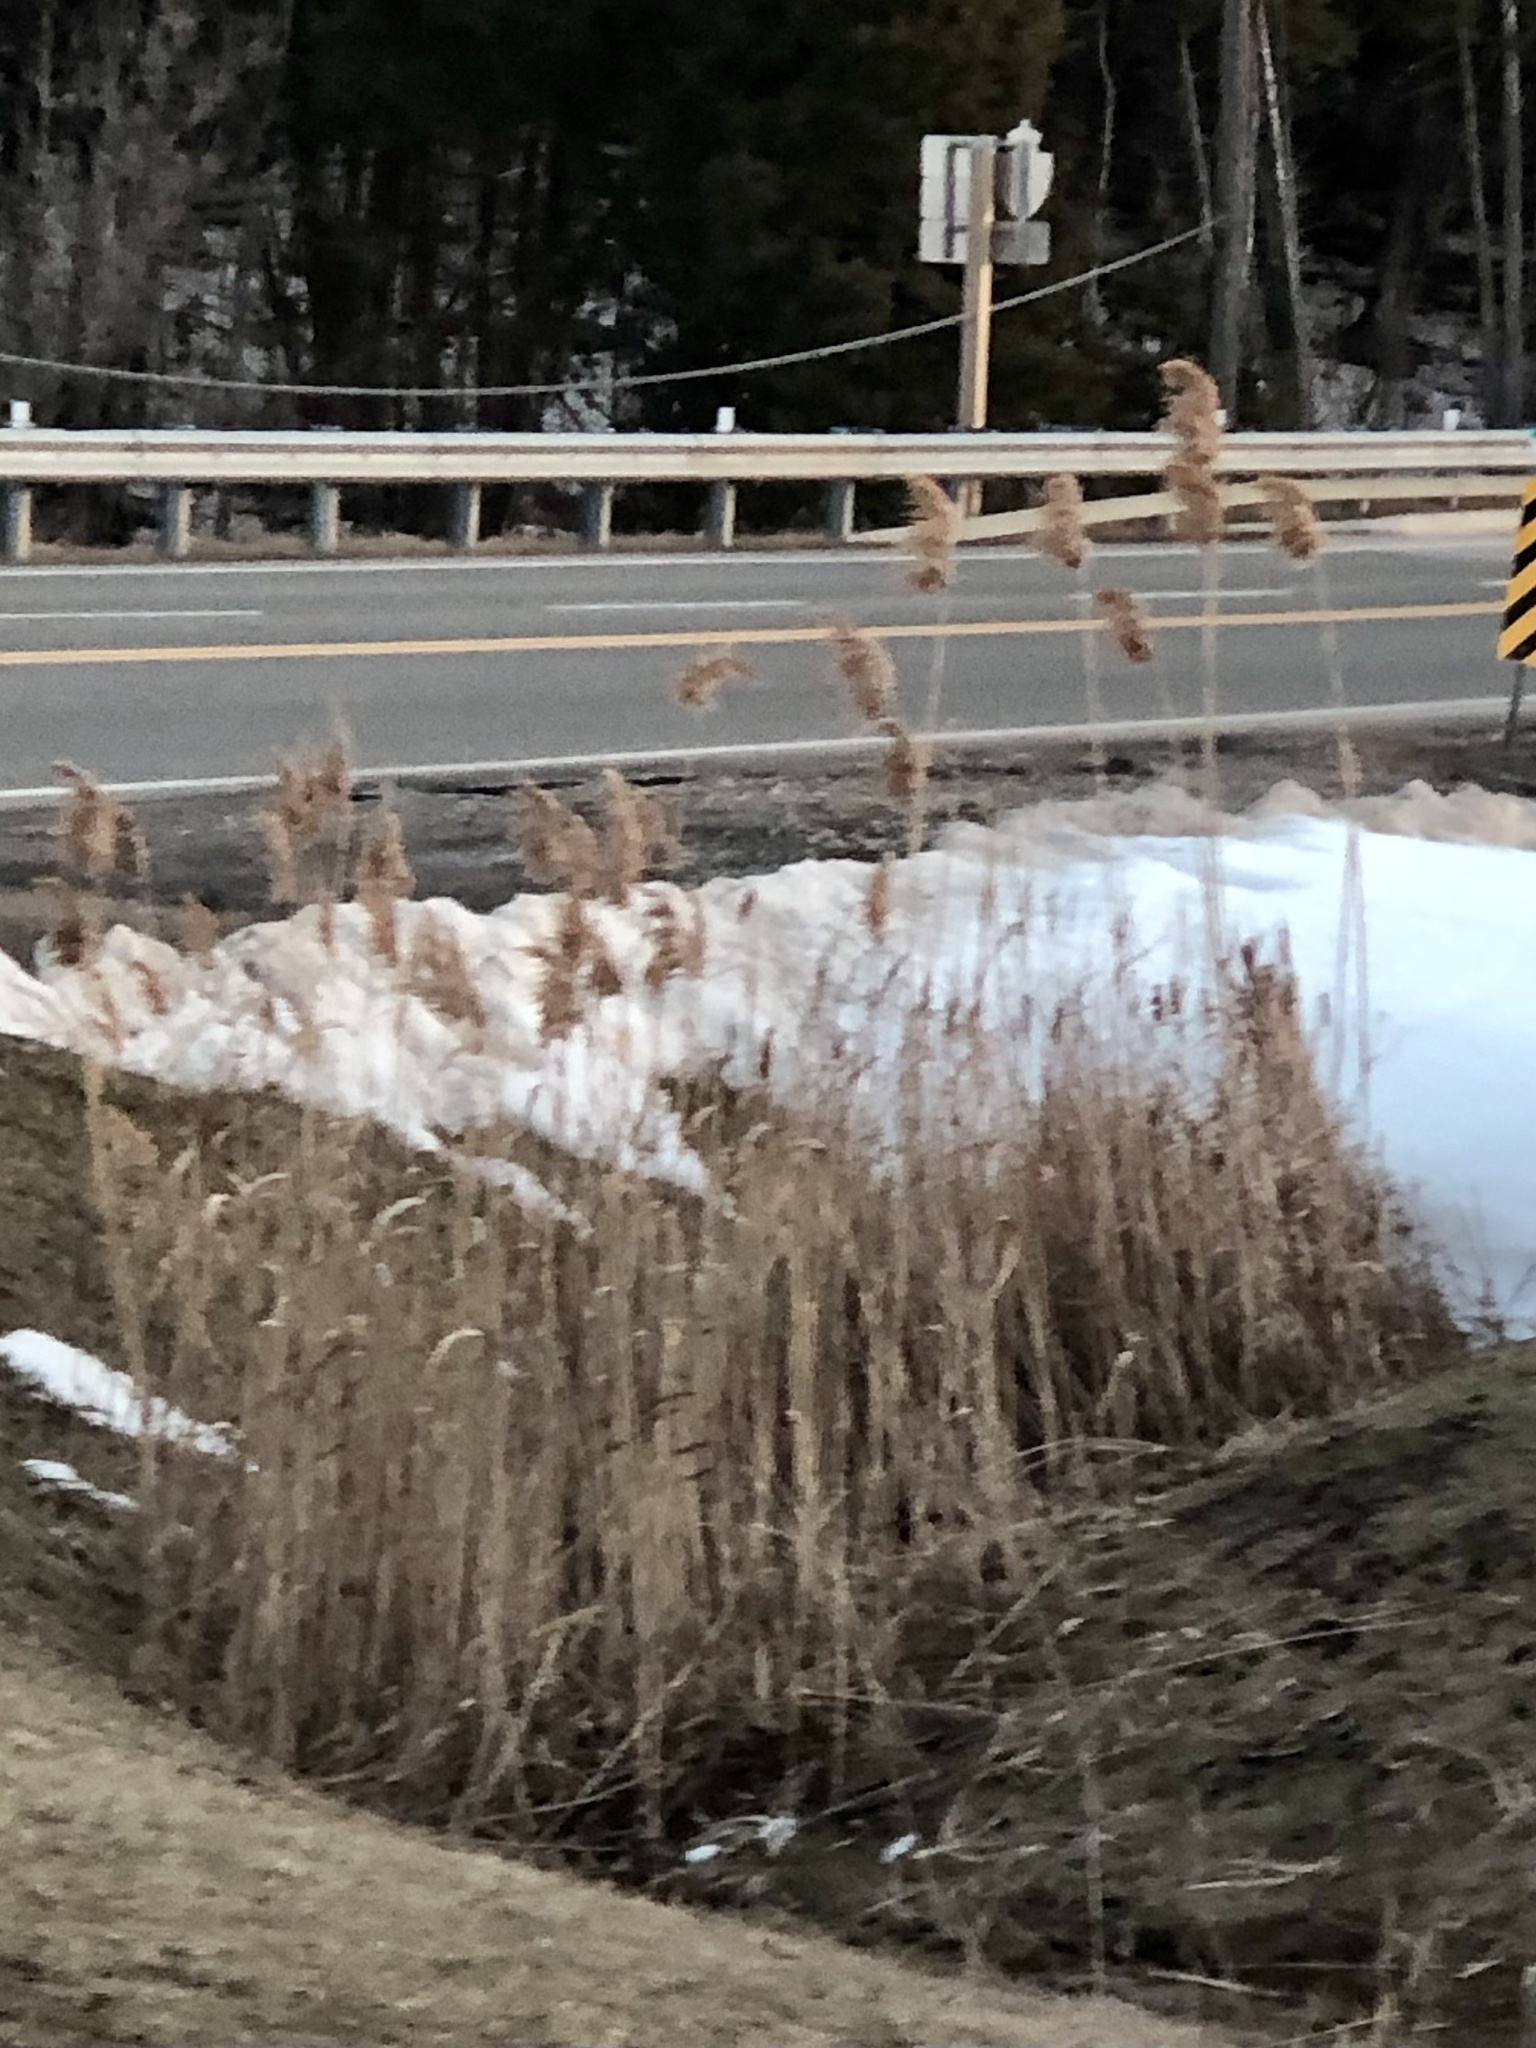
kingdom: Plantae
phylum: Tracheophyta
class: Liliopsida
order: Poales
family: Poaceae
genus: Phragmites
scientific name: Phragmites australis
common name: Common reed
